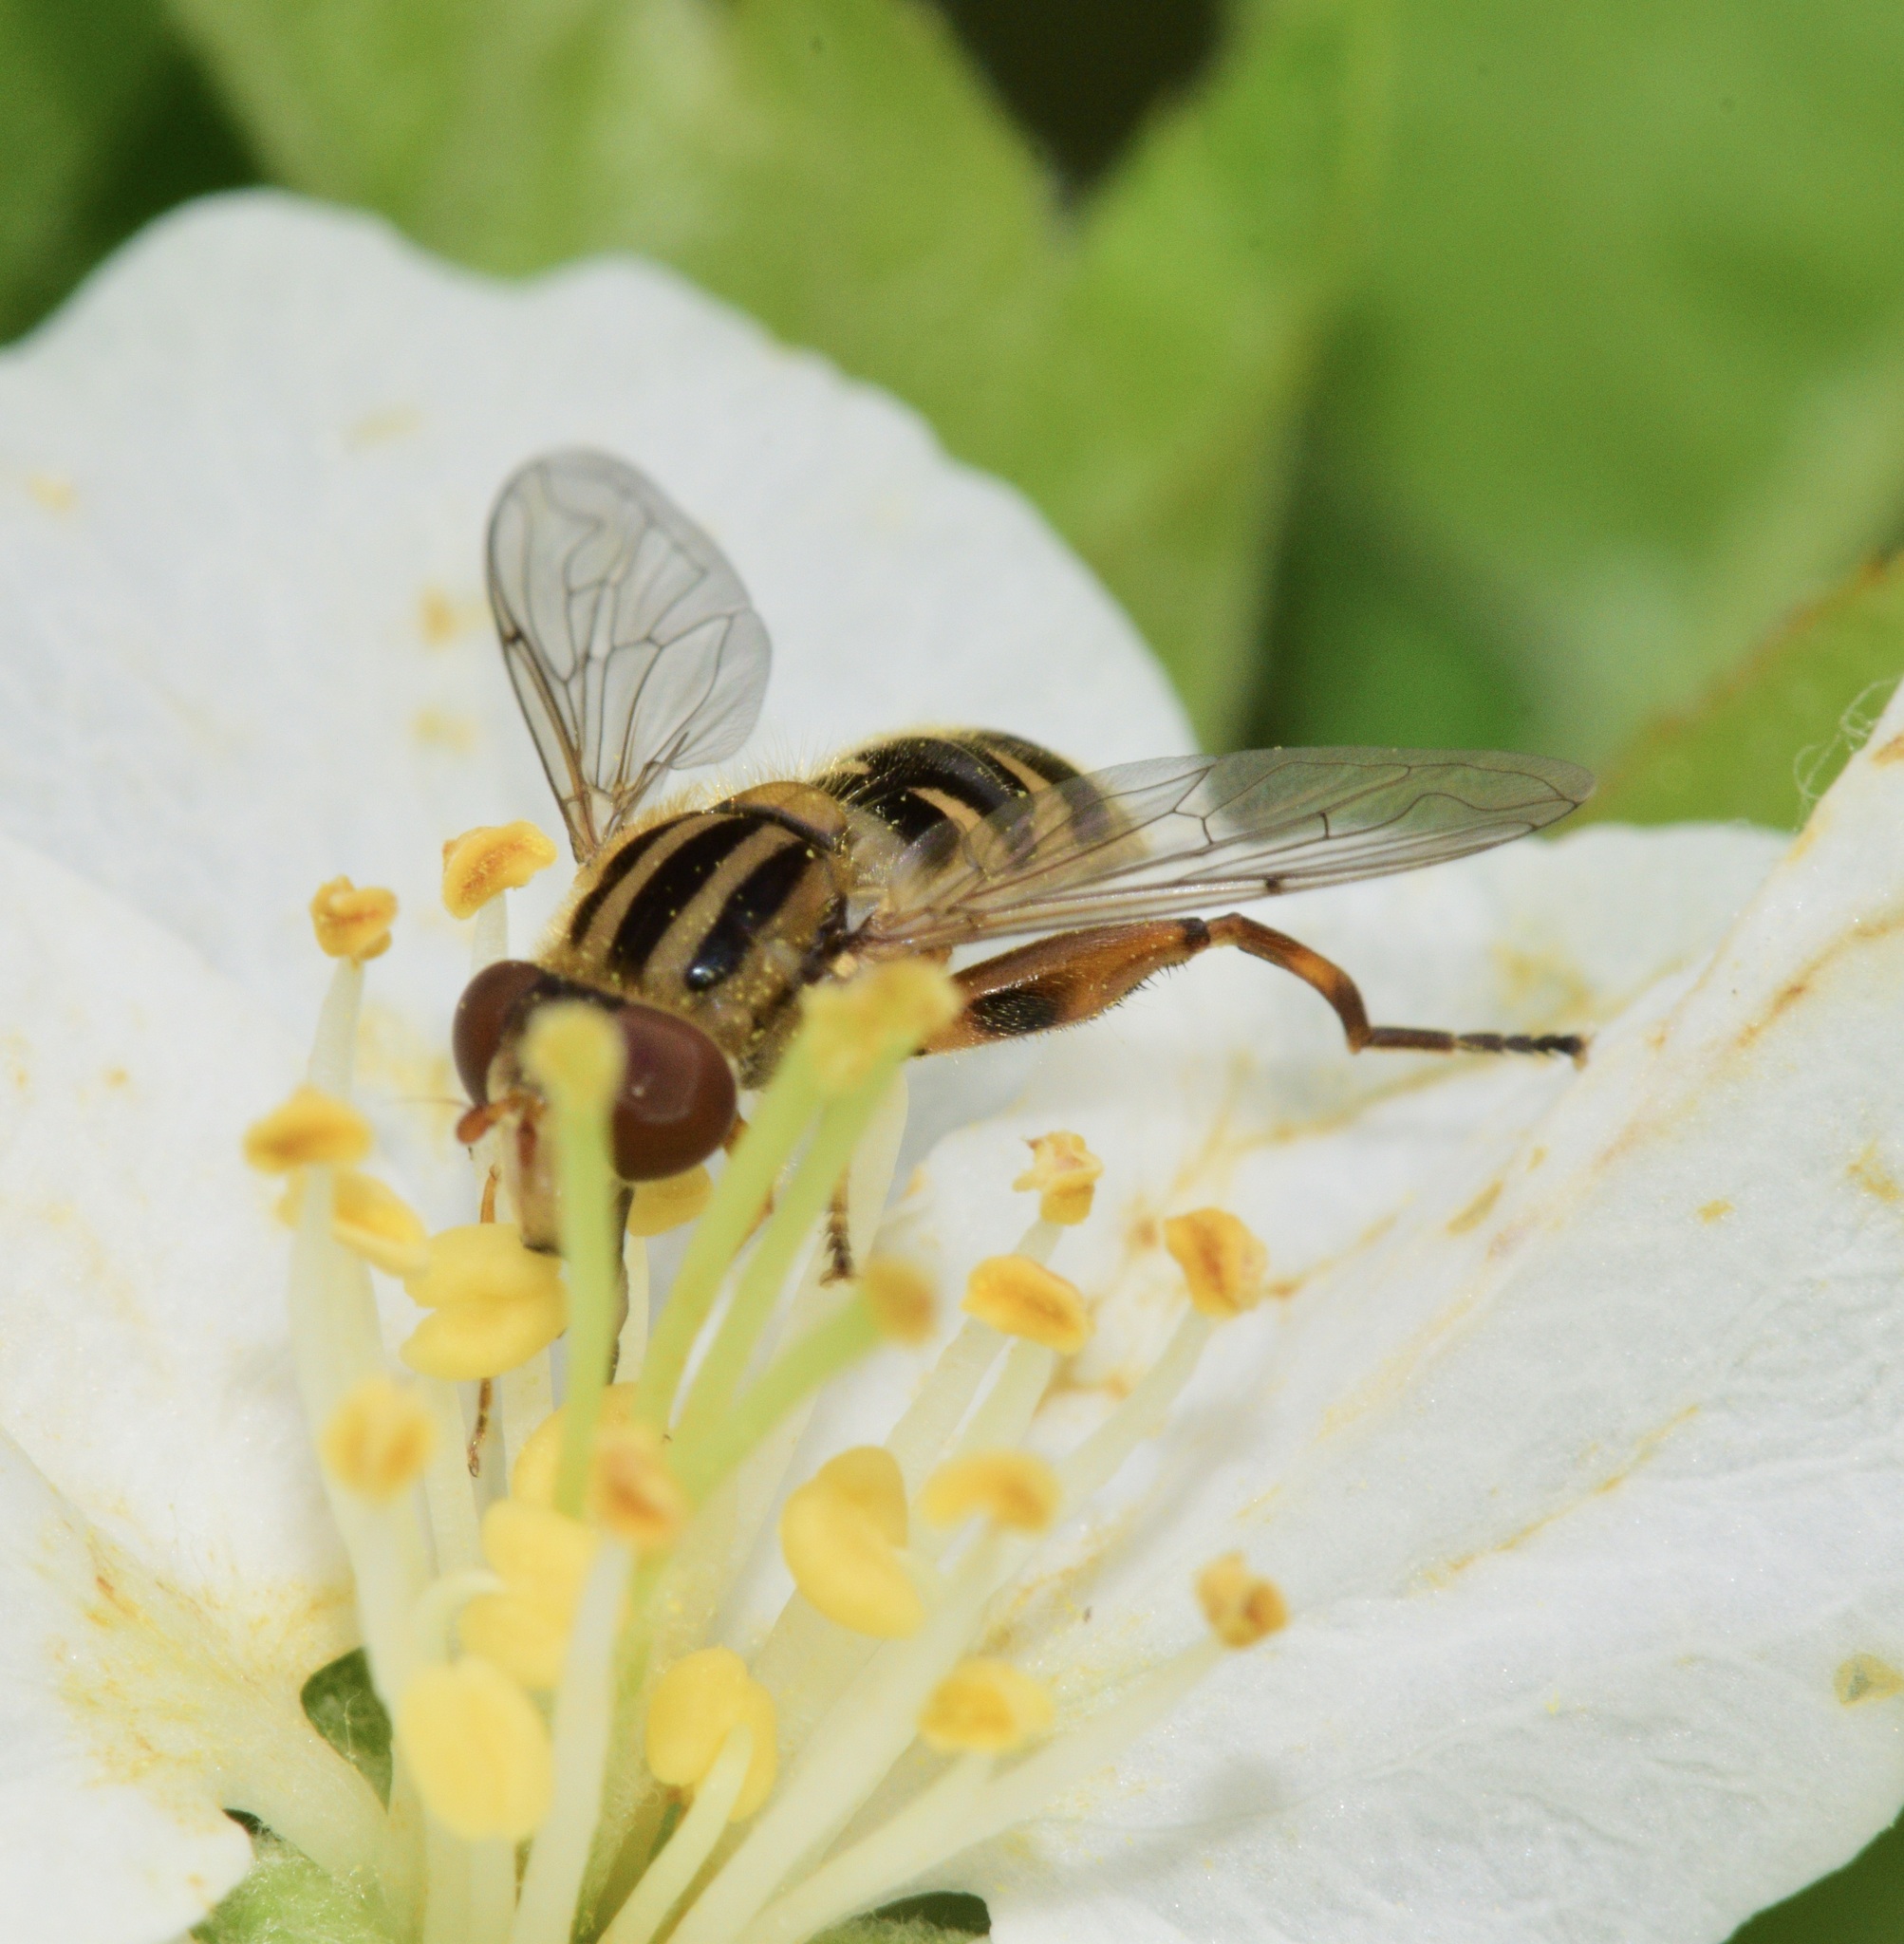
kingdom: Animalia
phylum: Arthropoda
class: Insecta
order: Diptera
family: Syrphidae
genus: Anasimyia
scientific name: Anasimyia
